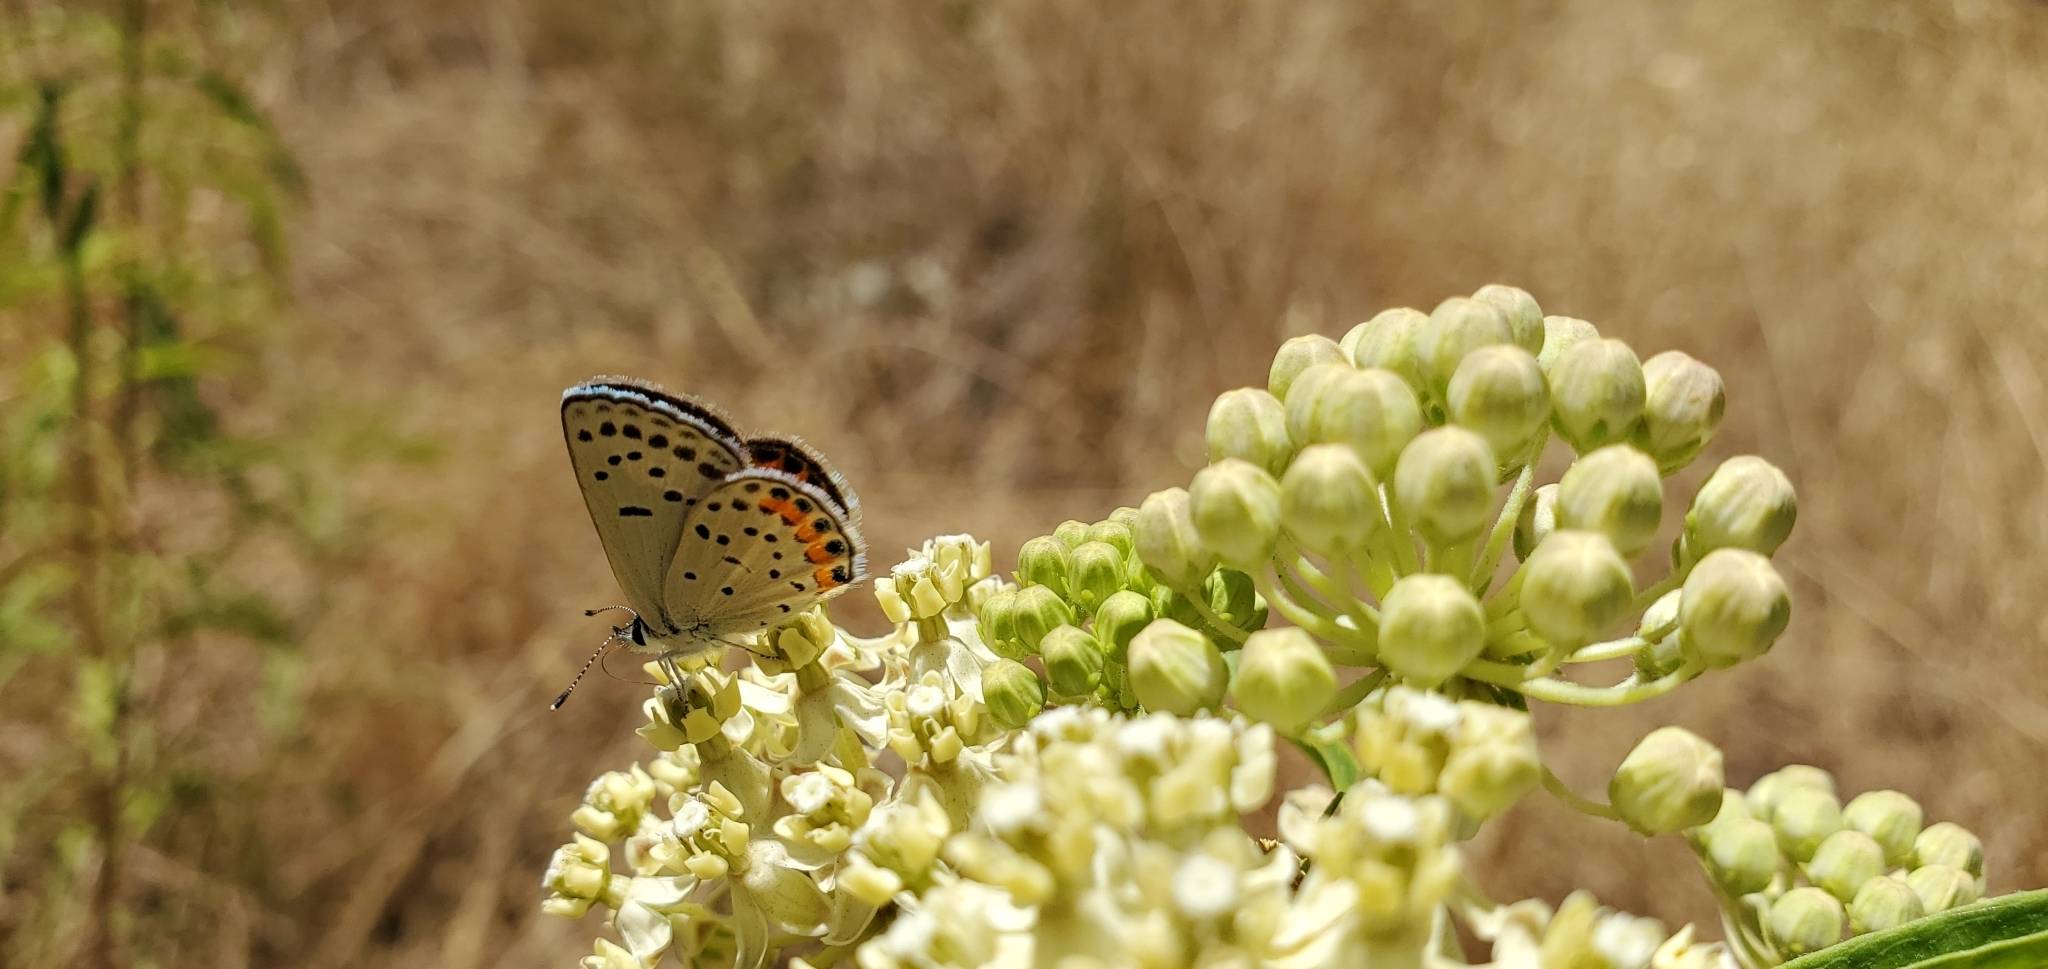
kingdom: Animalia
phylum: Arthropoda
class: Insecta
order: Lepidoptera
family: Lycaenidae
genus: Icaricia
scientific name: Icaricia acmon
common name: Acmon blue
